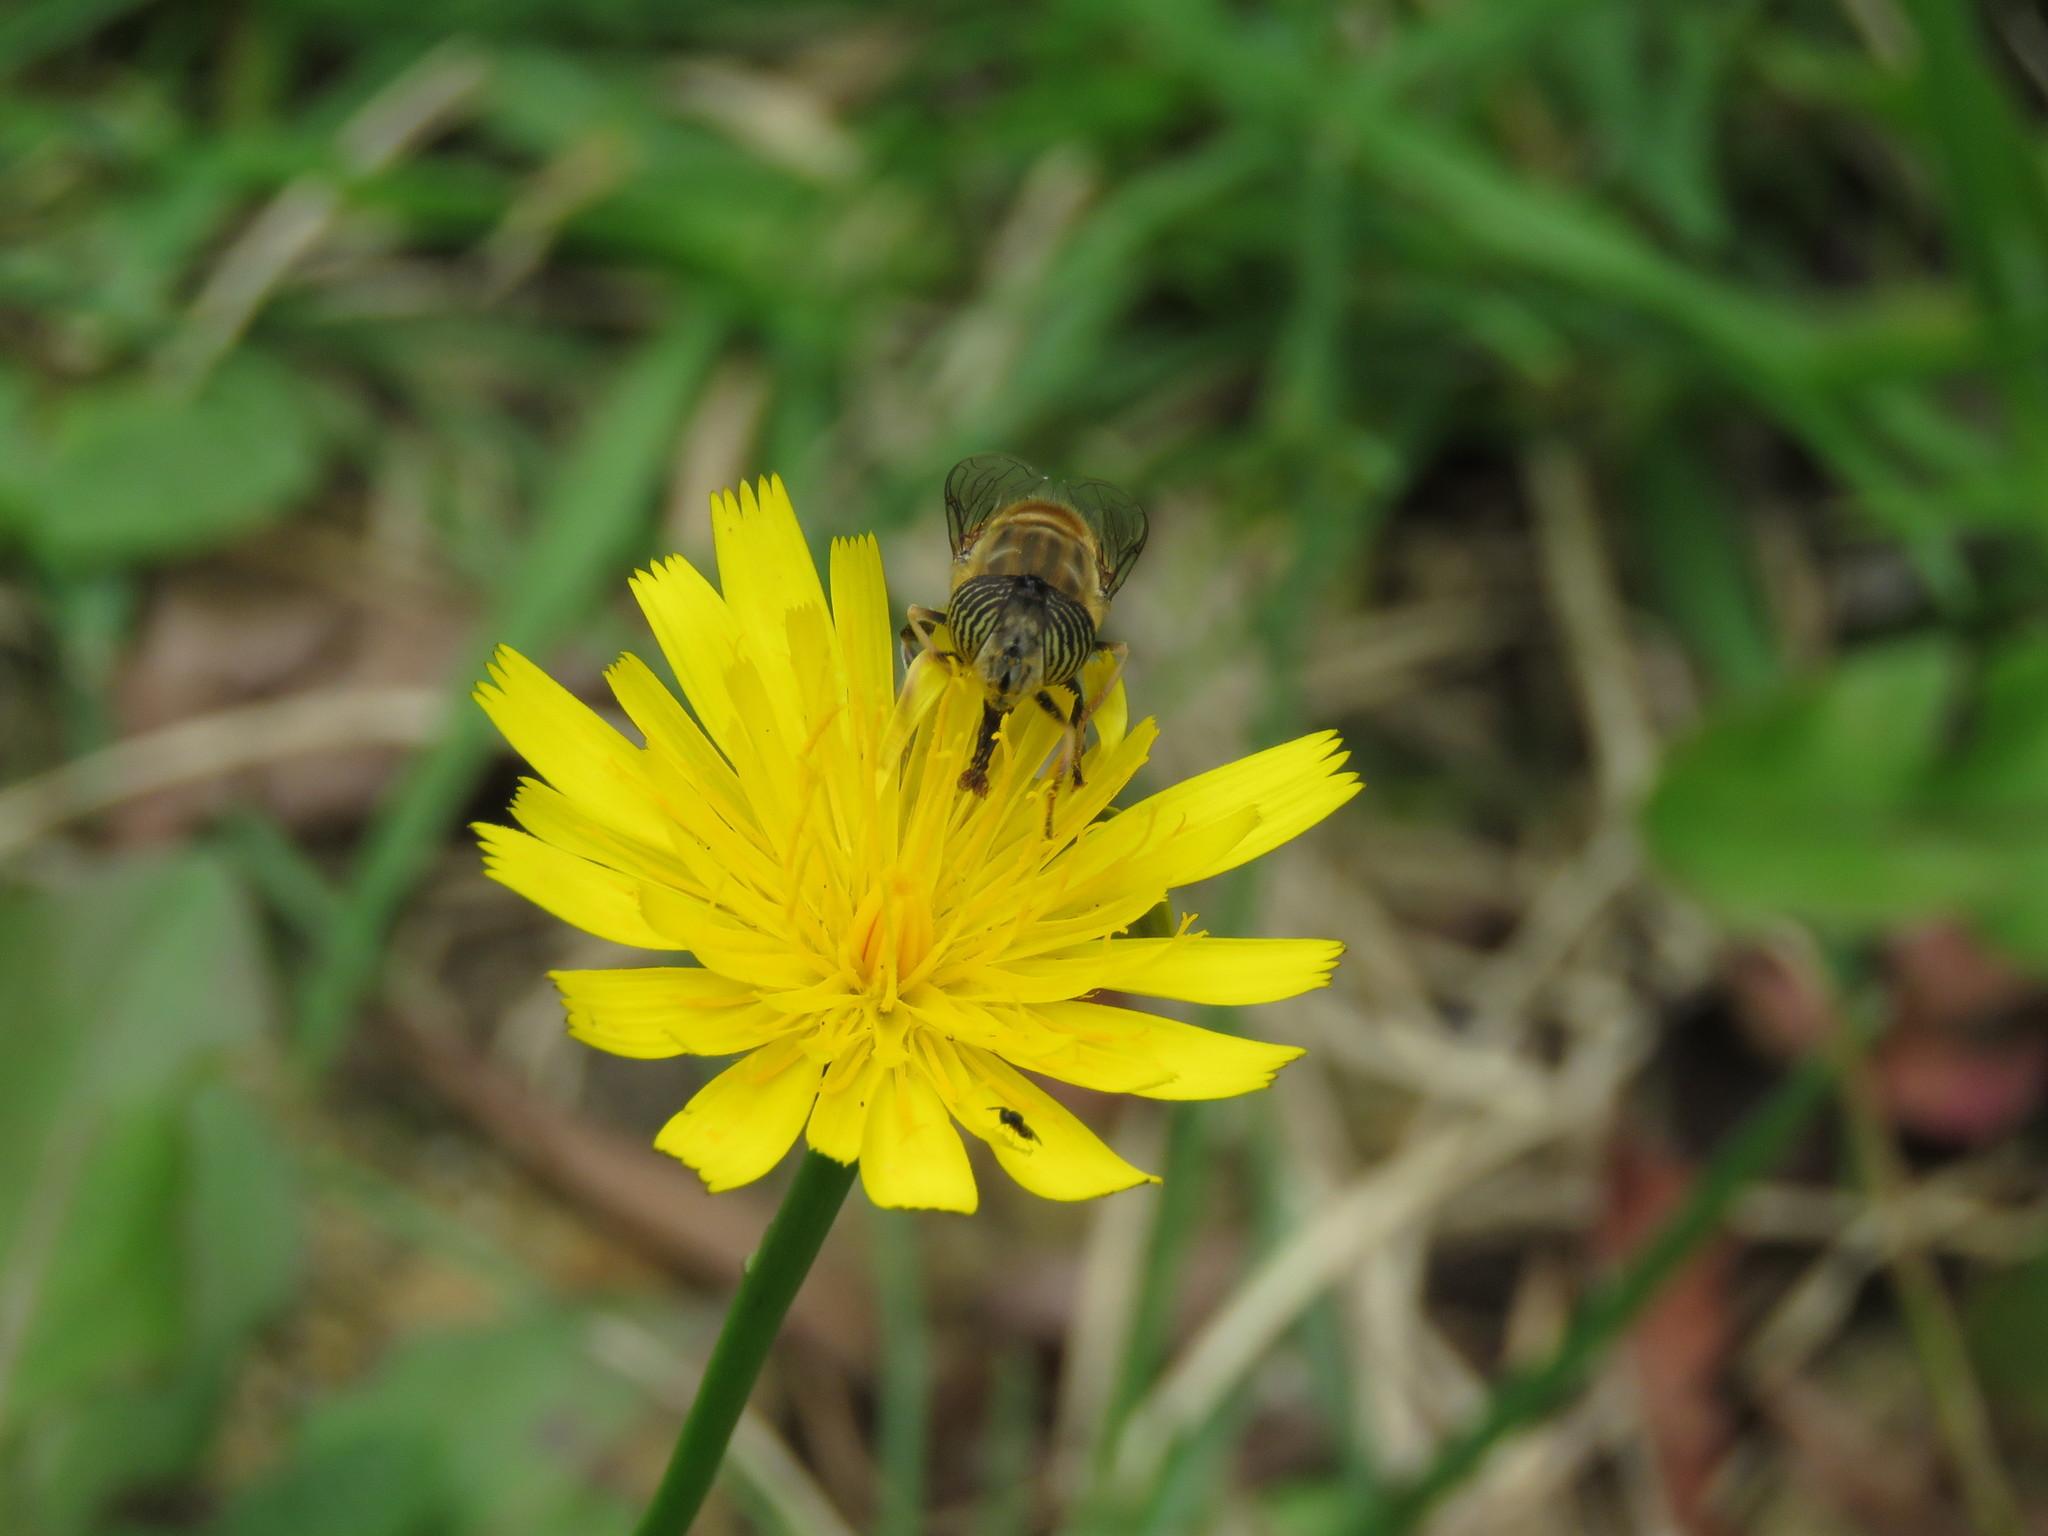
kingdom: Plantae
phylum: Tracheophyta
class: Magnoliopsida
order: Asterales
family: Asteraceae
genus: Hypochaeris
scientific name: Hypochaeris radicata
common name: Flatweed
